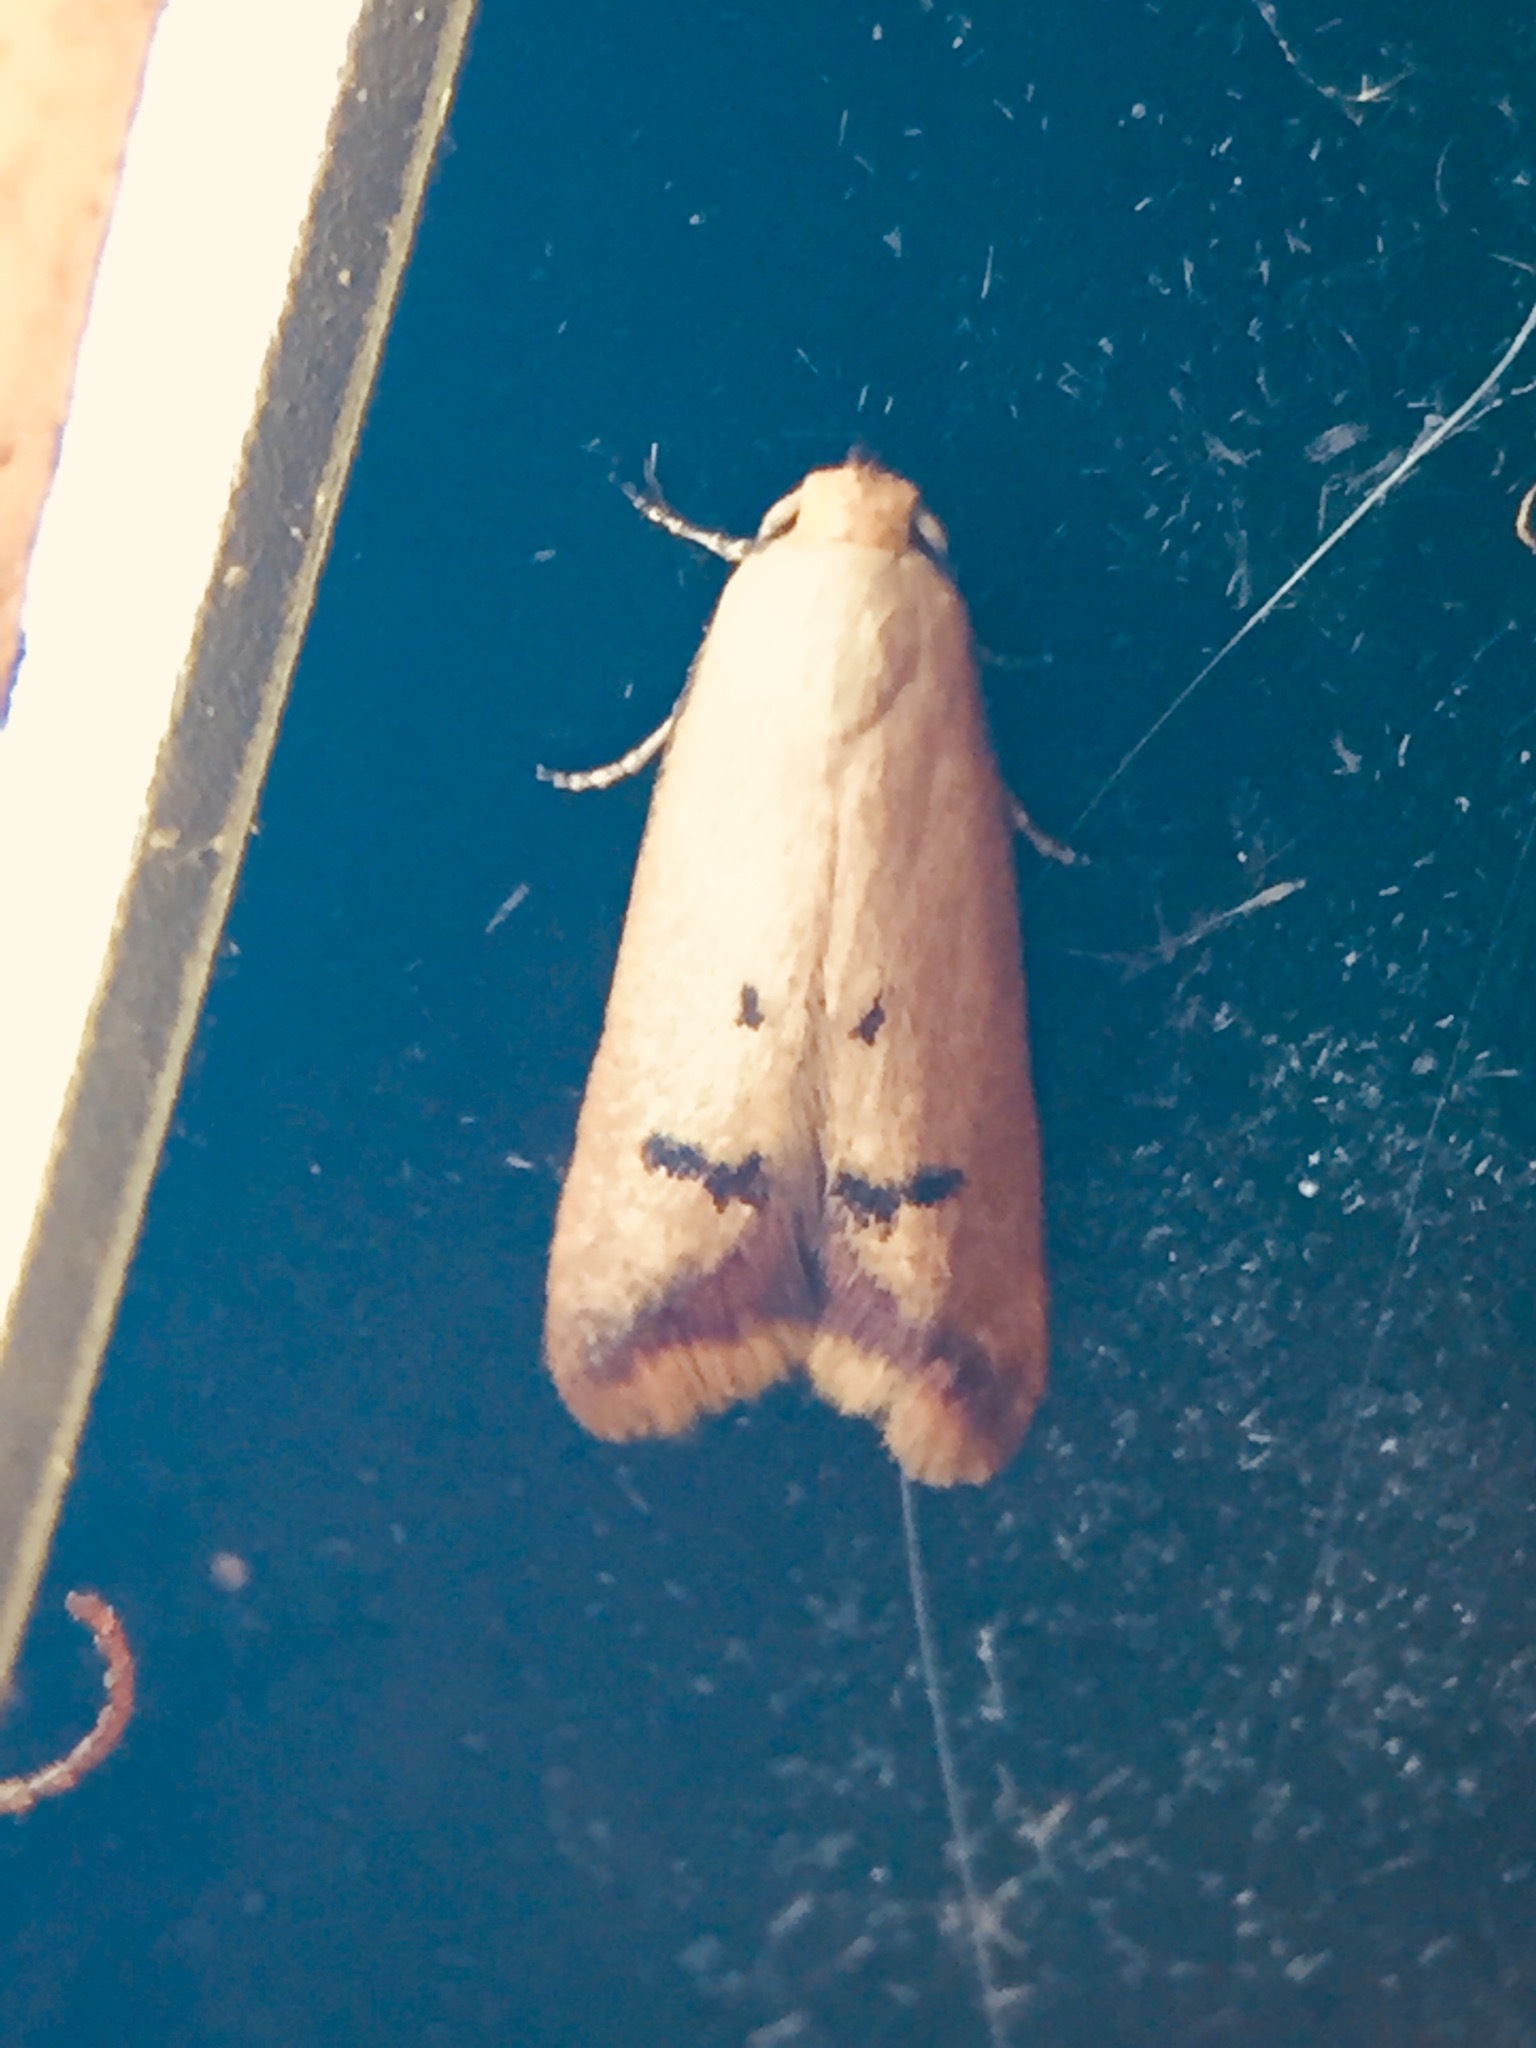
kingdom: Animalia
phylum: Arthropoda
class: Insecta
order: Lepidoptera
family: Oecophoridae
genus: Tachystola
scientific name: Tachystola hemisema
